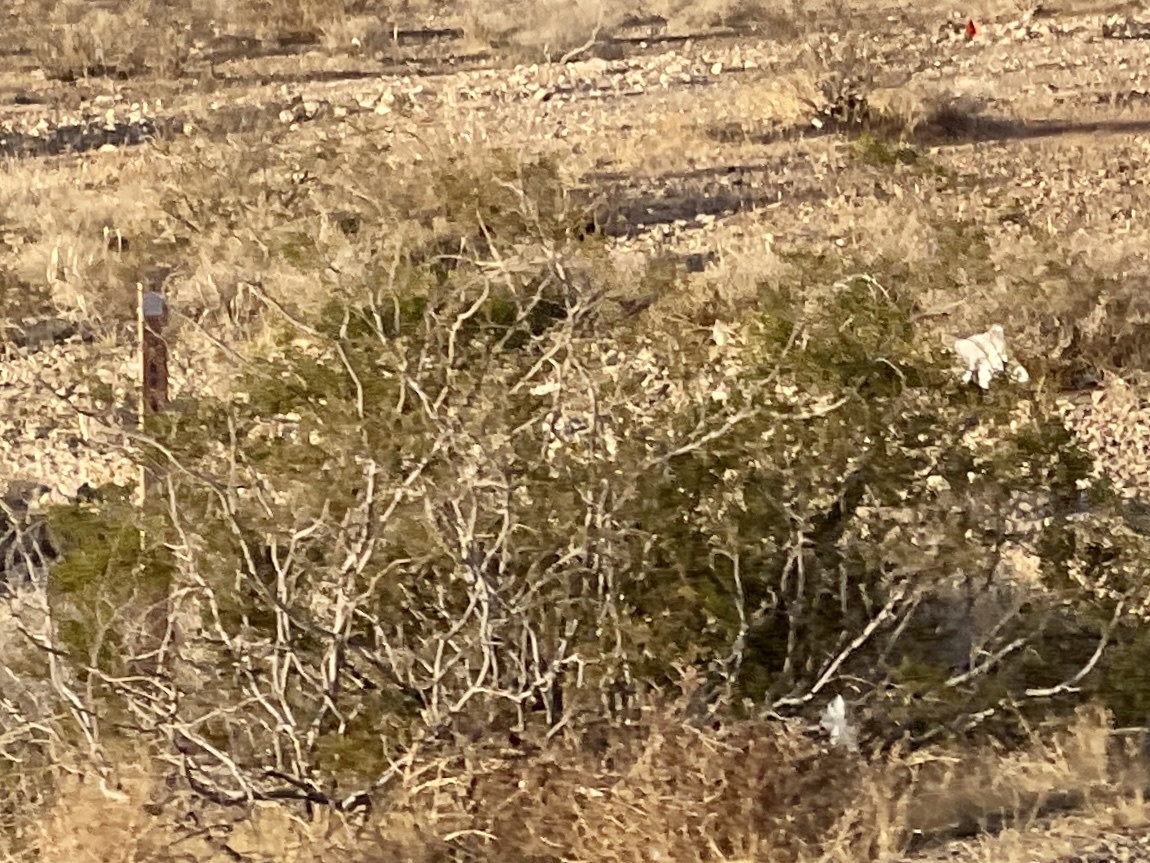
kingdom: Plantae
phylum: Tracheophyta
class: Magnoliopsida
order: Zygophyllales
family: Zygophyllaceae
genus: Larrea
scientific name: Larrea tridentata
